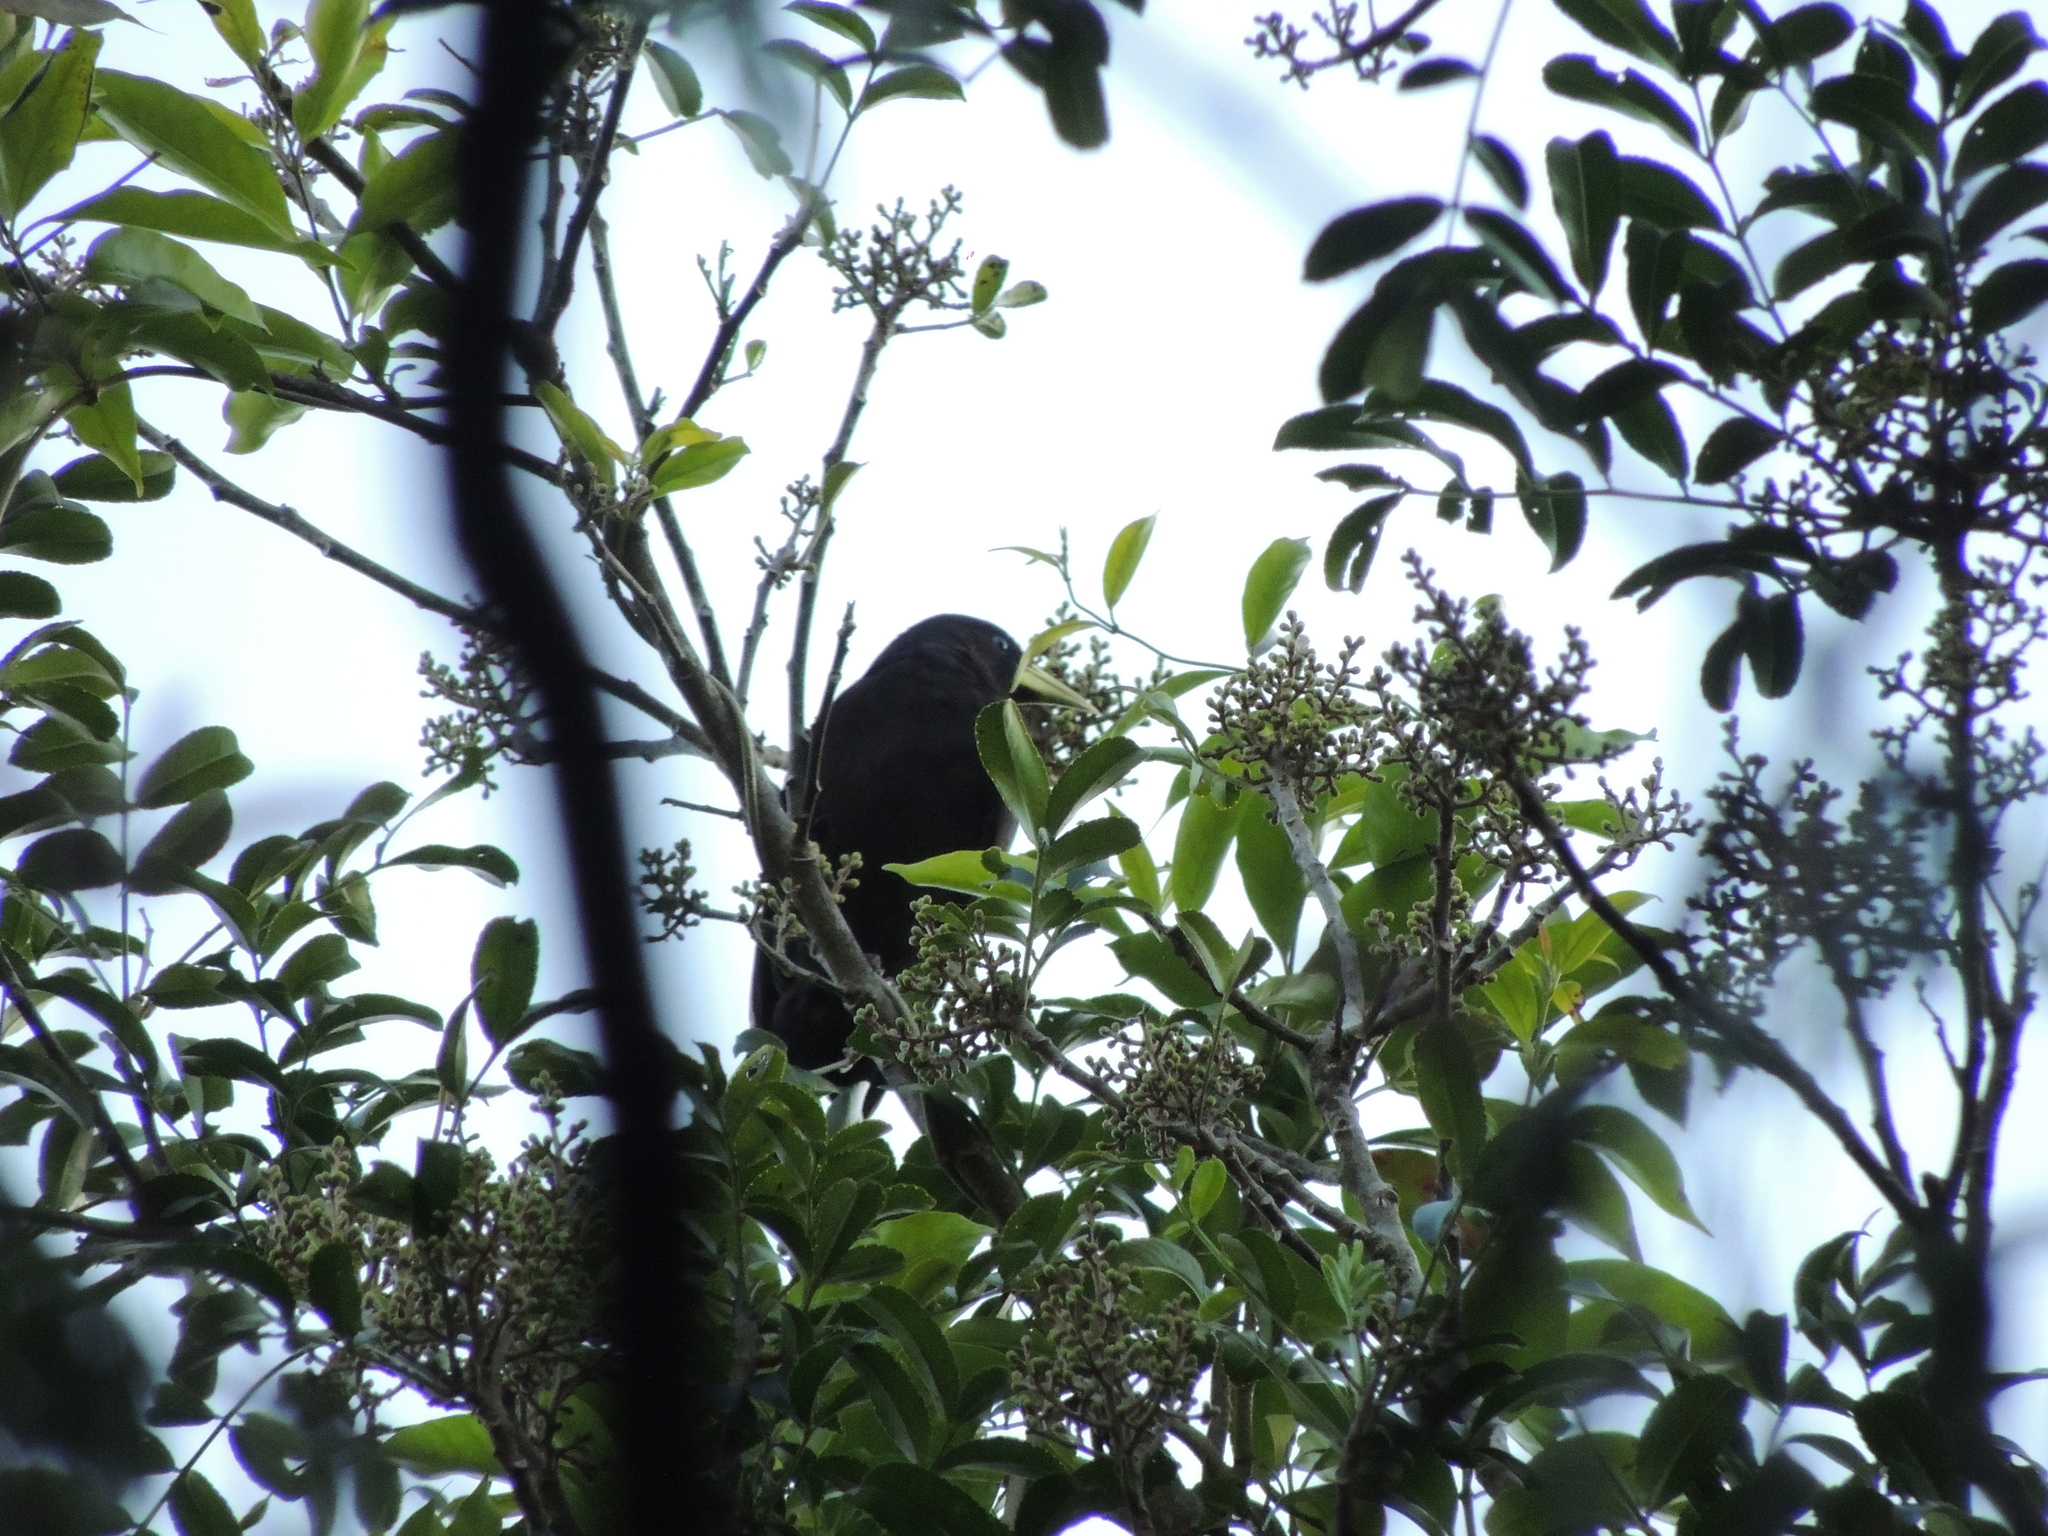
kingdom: Animalia
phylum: Chordata
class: Aves
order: Passeriformes
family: Icteridae
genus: Cacicus
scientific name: Cacicus haemorrhous
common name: Red-rumped cacique
